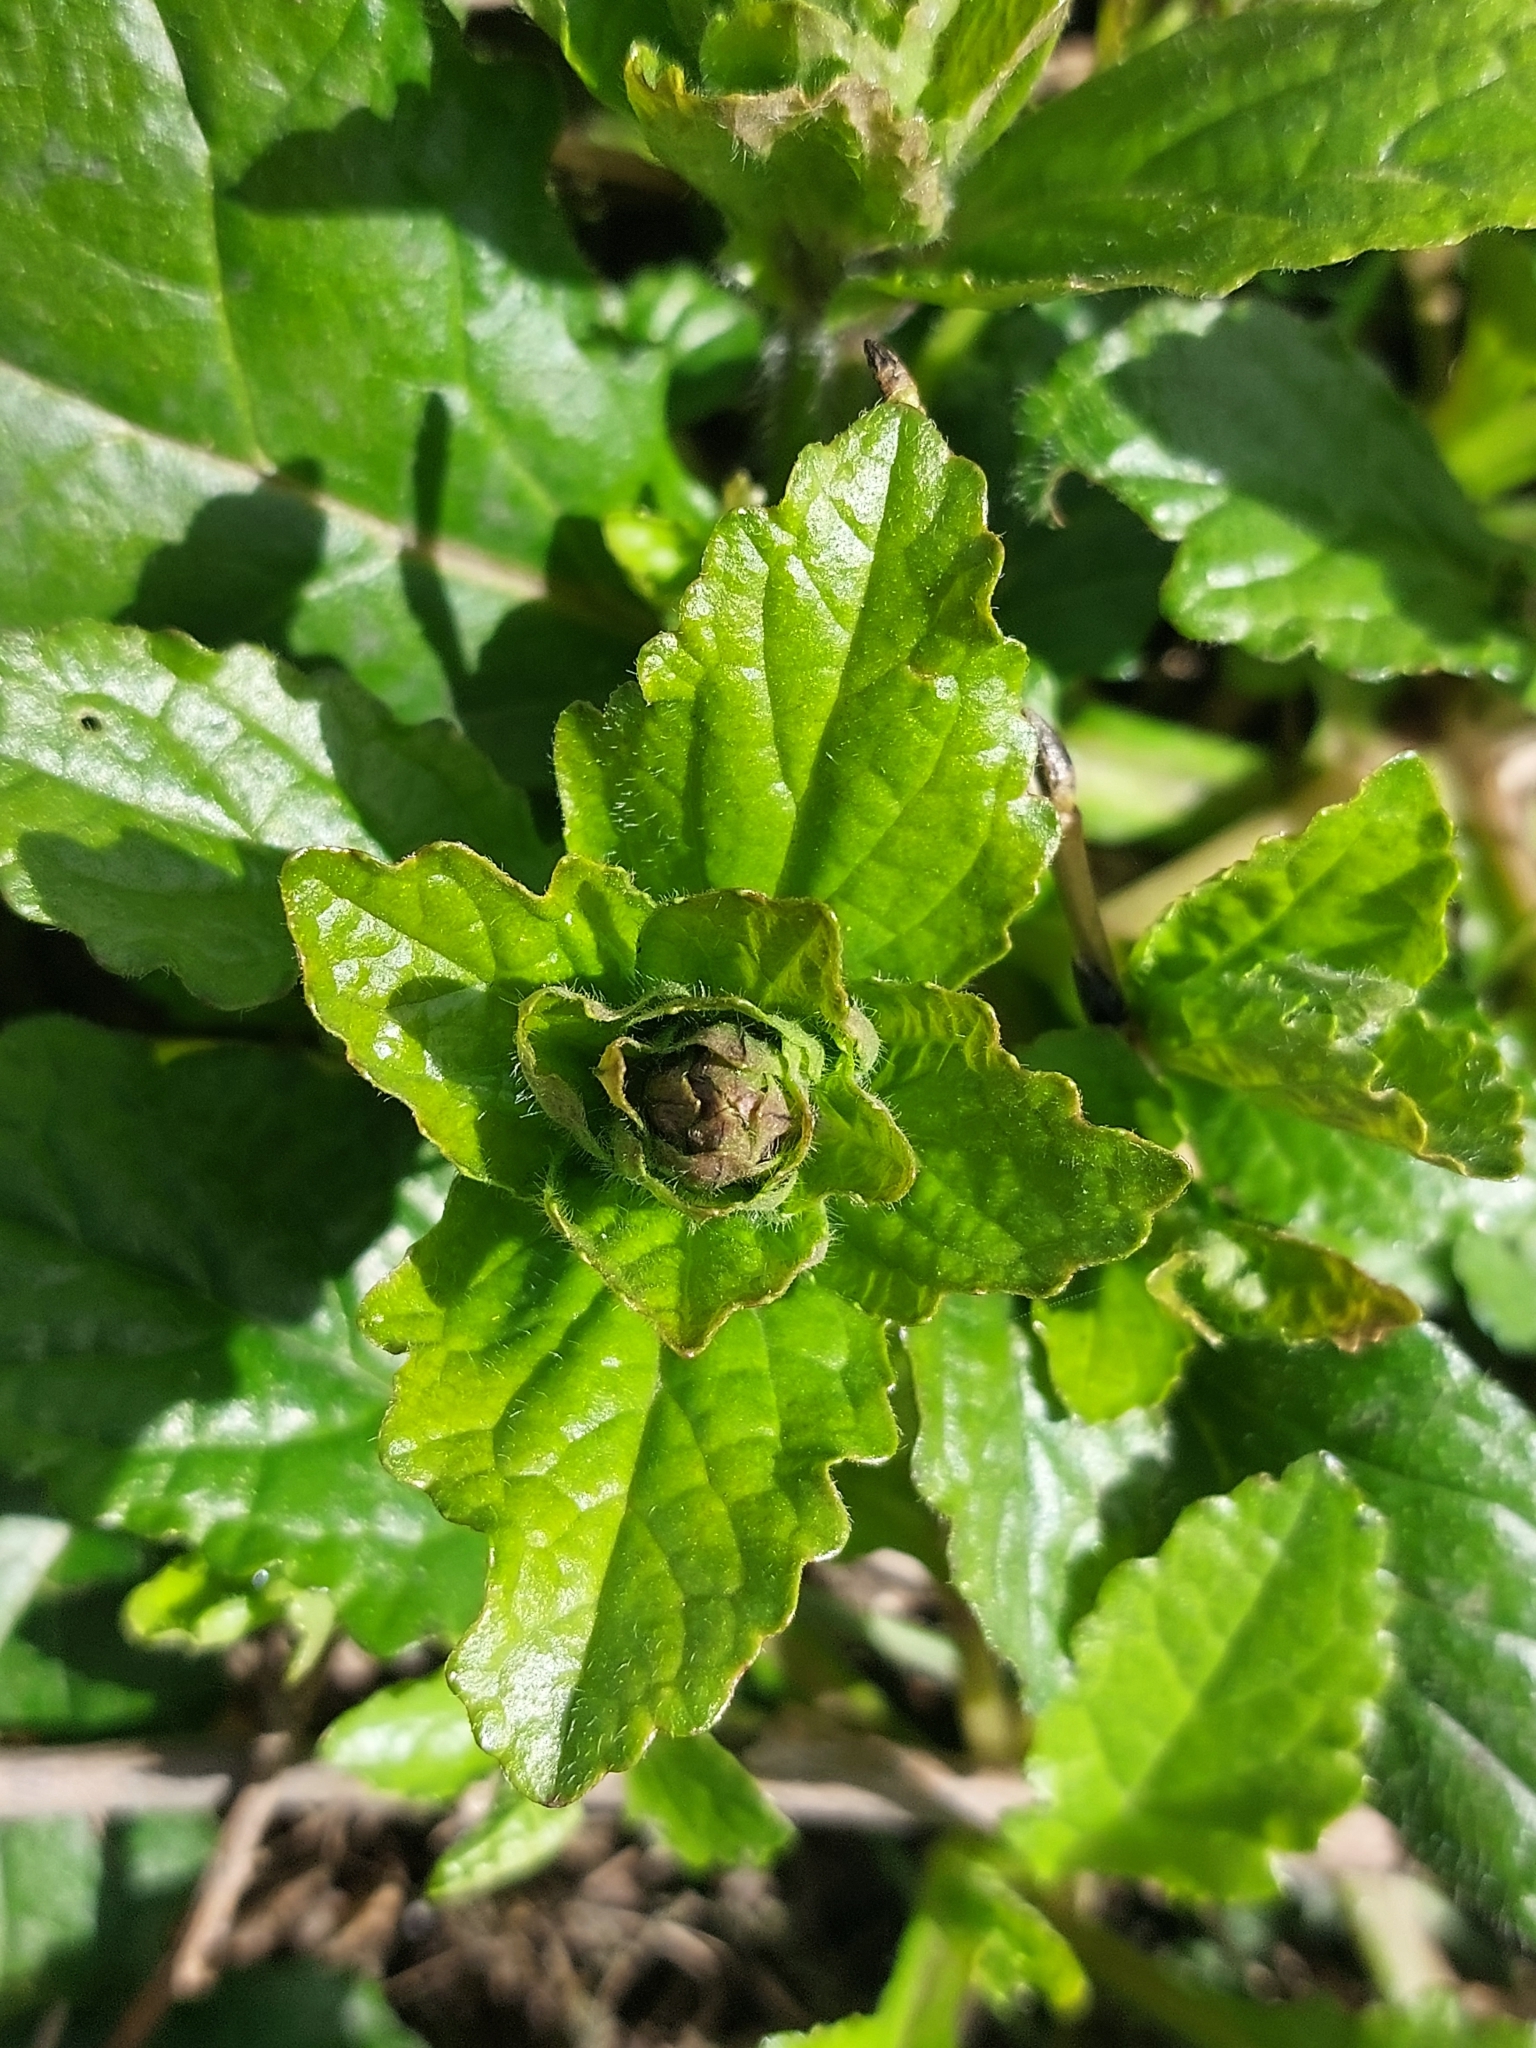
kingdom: Plantae
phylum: Tracheophyta
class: Magnoliopsida
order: Lamiales
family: Lamiaceae
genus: Ajuga
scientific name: Ajuga reptans
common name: Bugle
